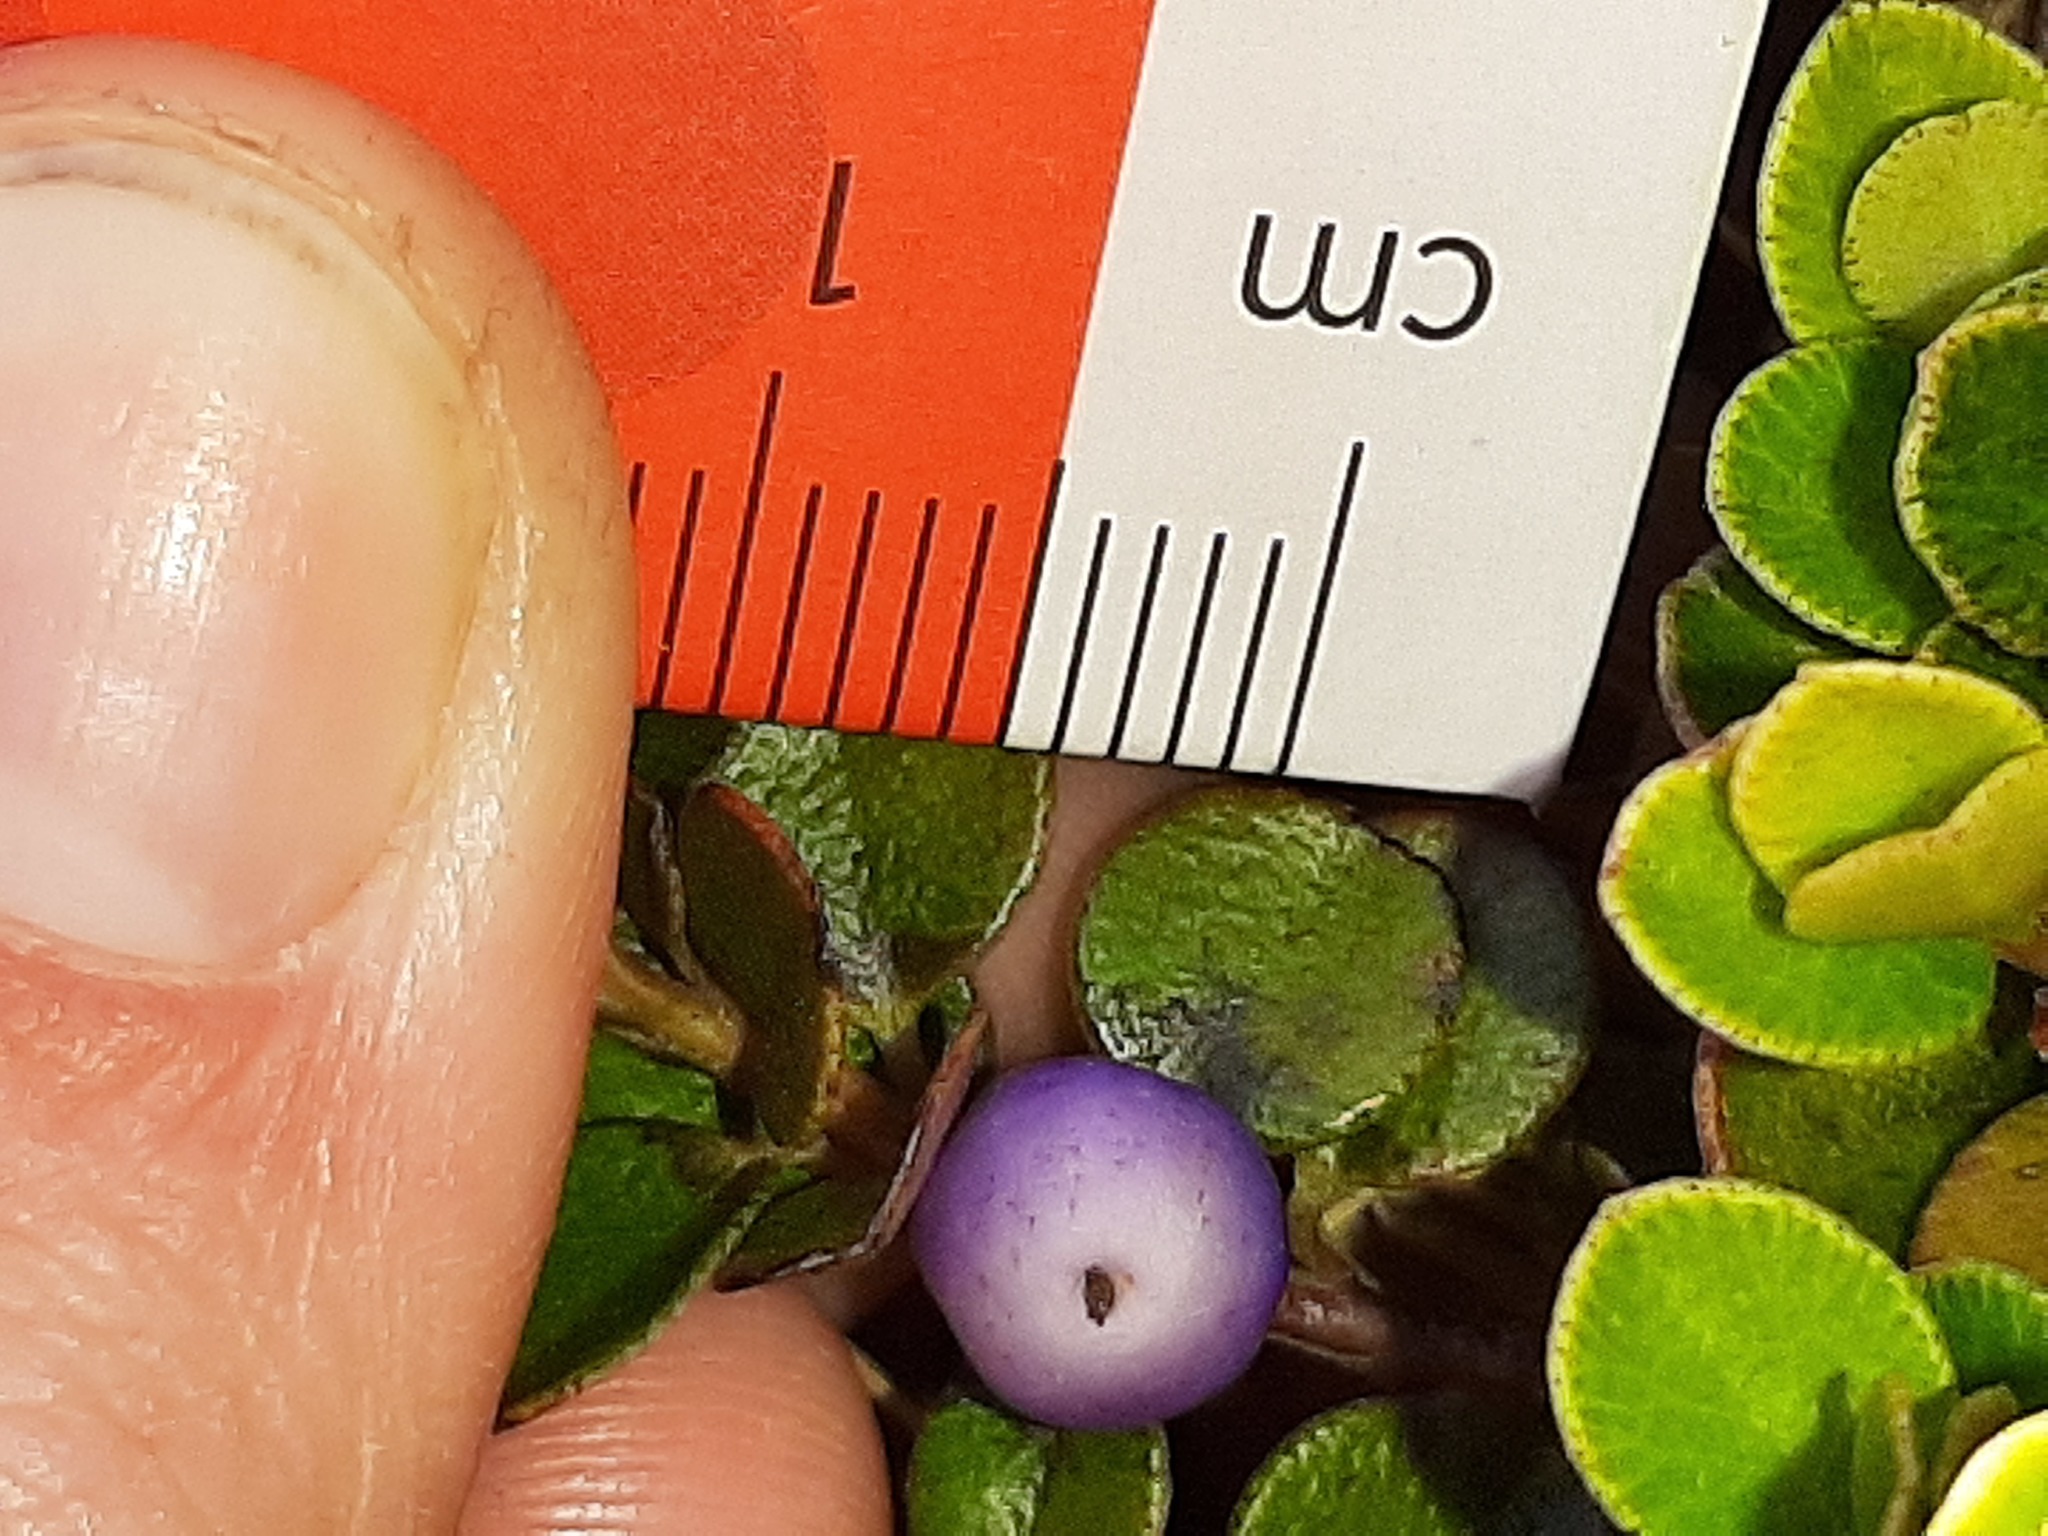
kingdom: Plantae
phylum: Tracheophyta
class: Magnoliopsida
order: Ericales
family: Primulaceae
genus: Myrsine
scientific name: Myrsine nummularia
